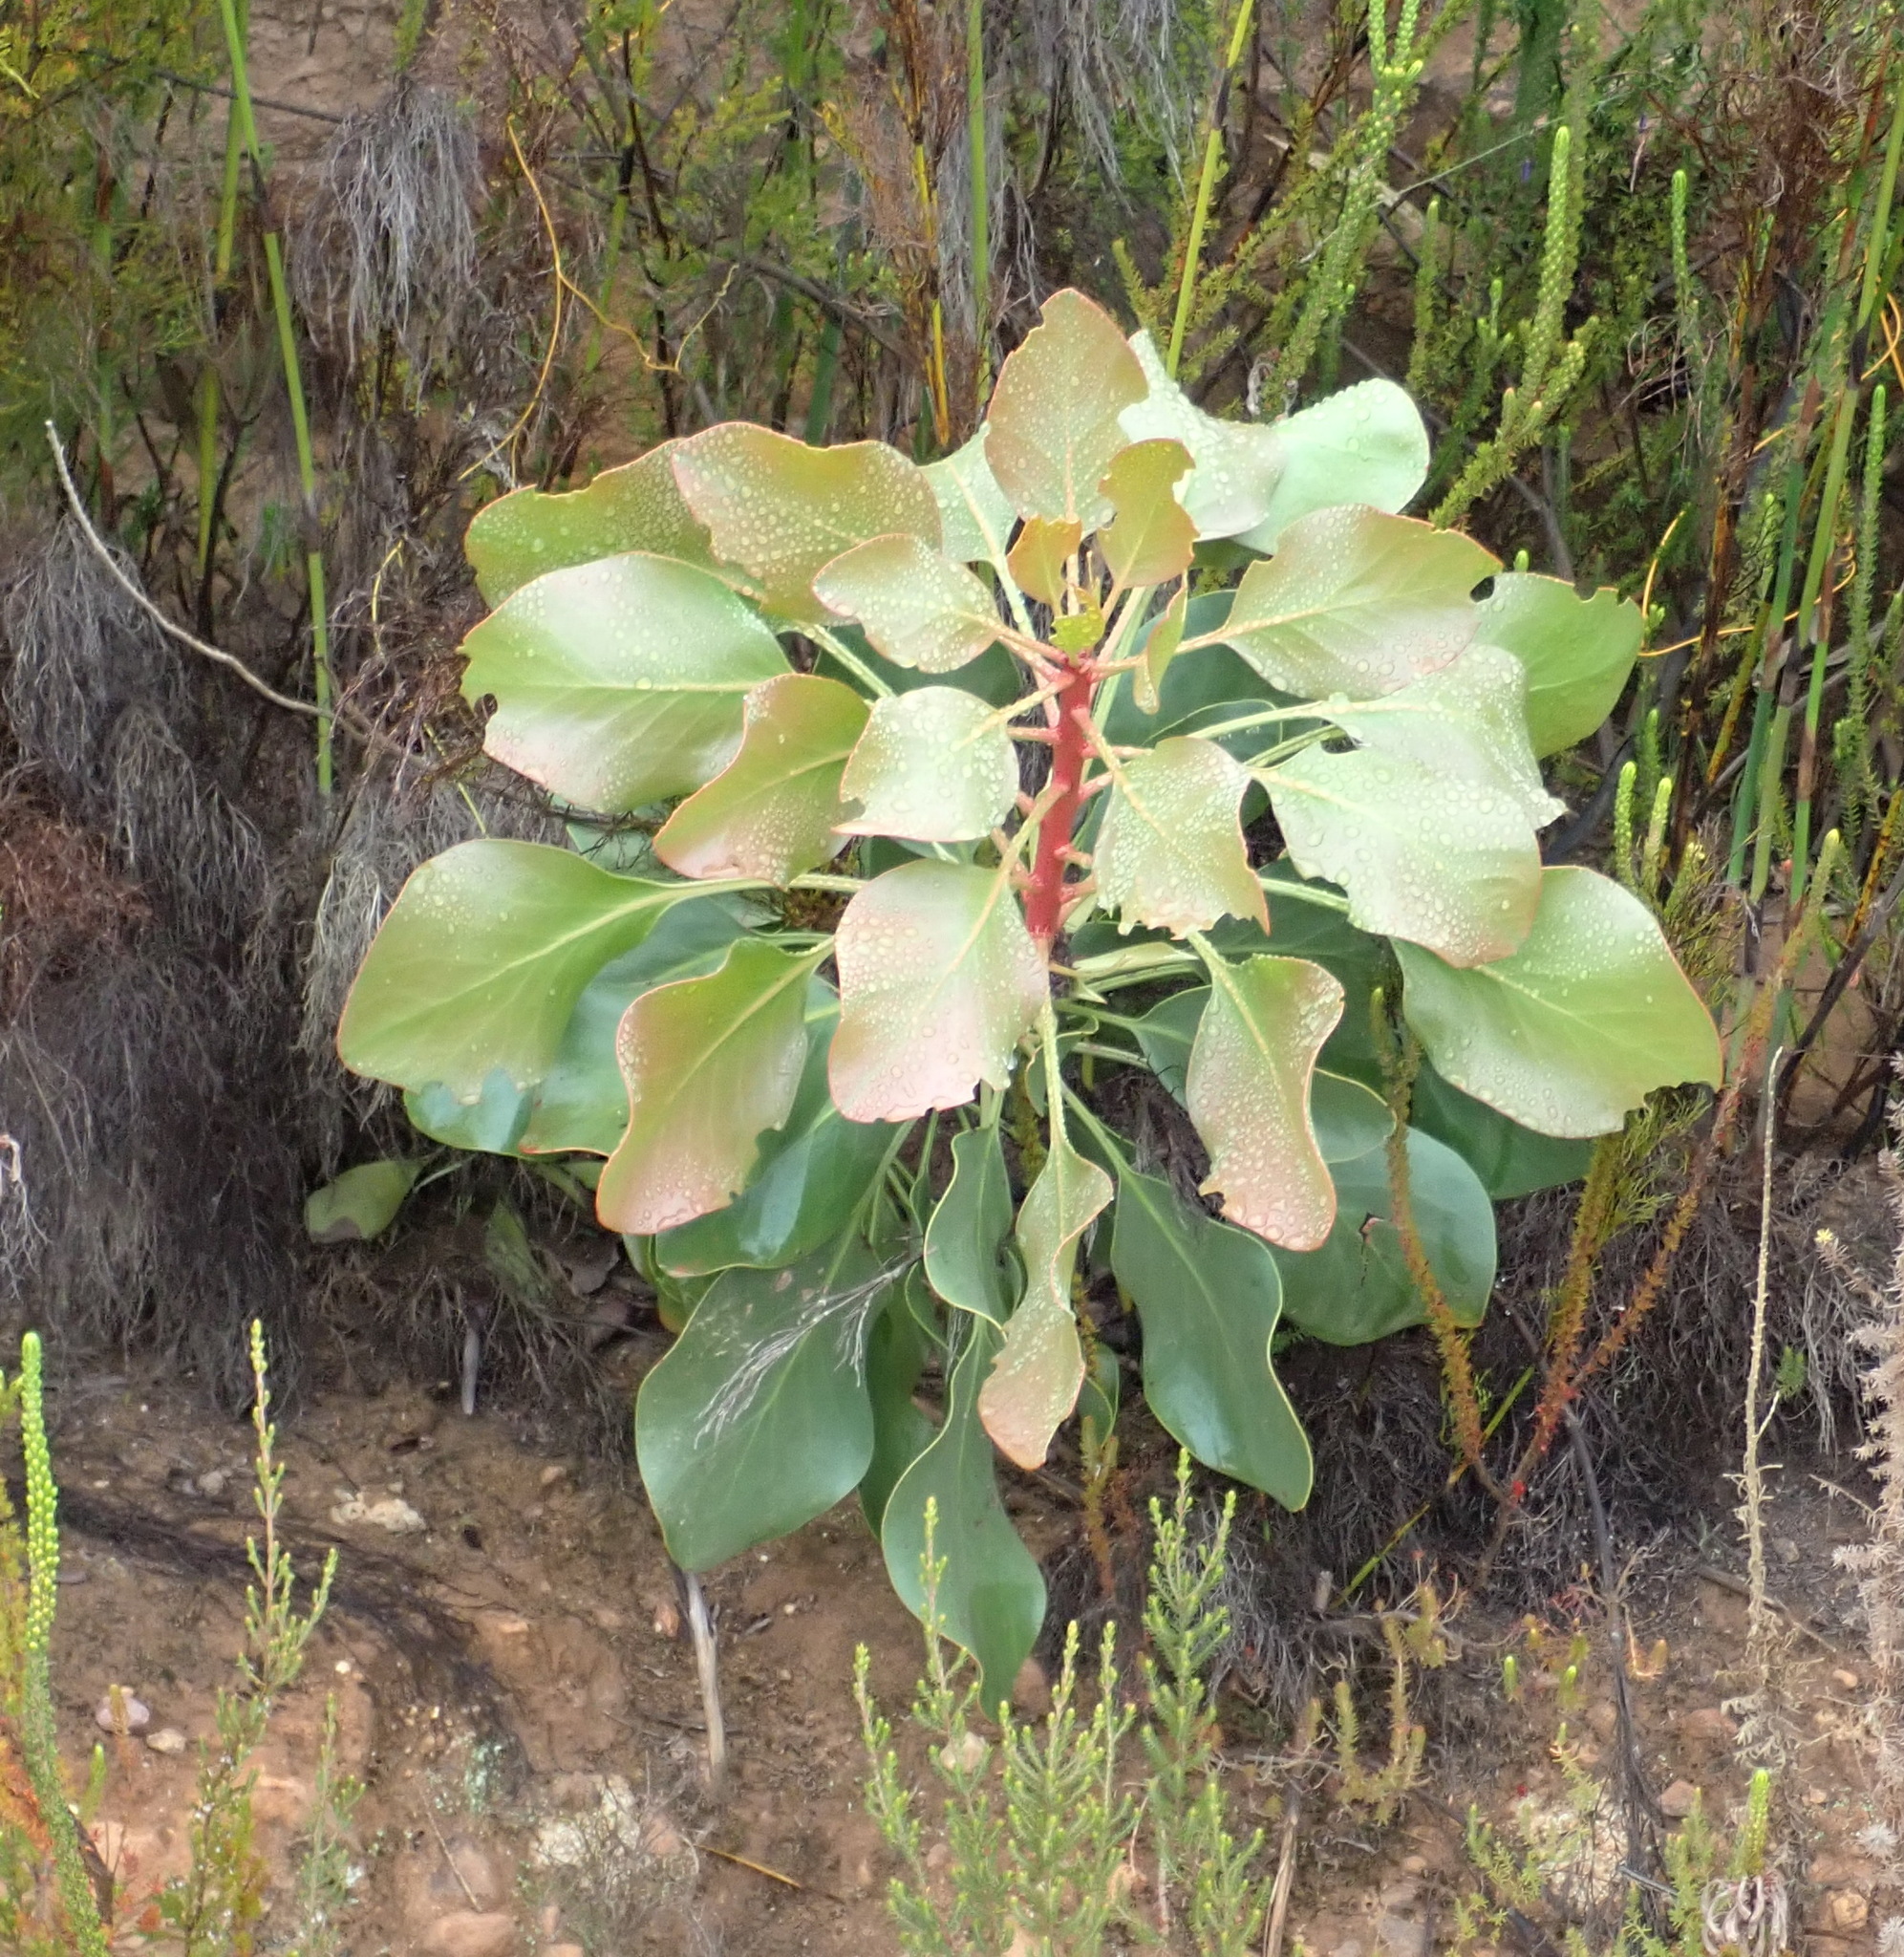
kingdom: Plantae
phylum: Tracheophyta
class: Magnoliopsida
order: Proteales
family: Proteaceae
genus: Protea
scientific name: Protea cynaroides
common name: King protea
